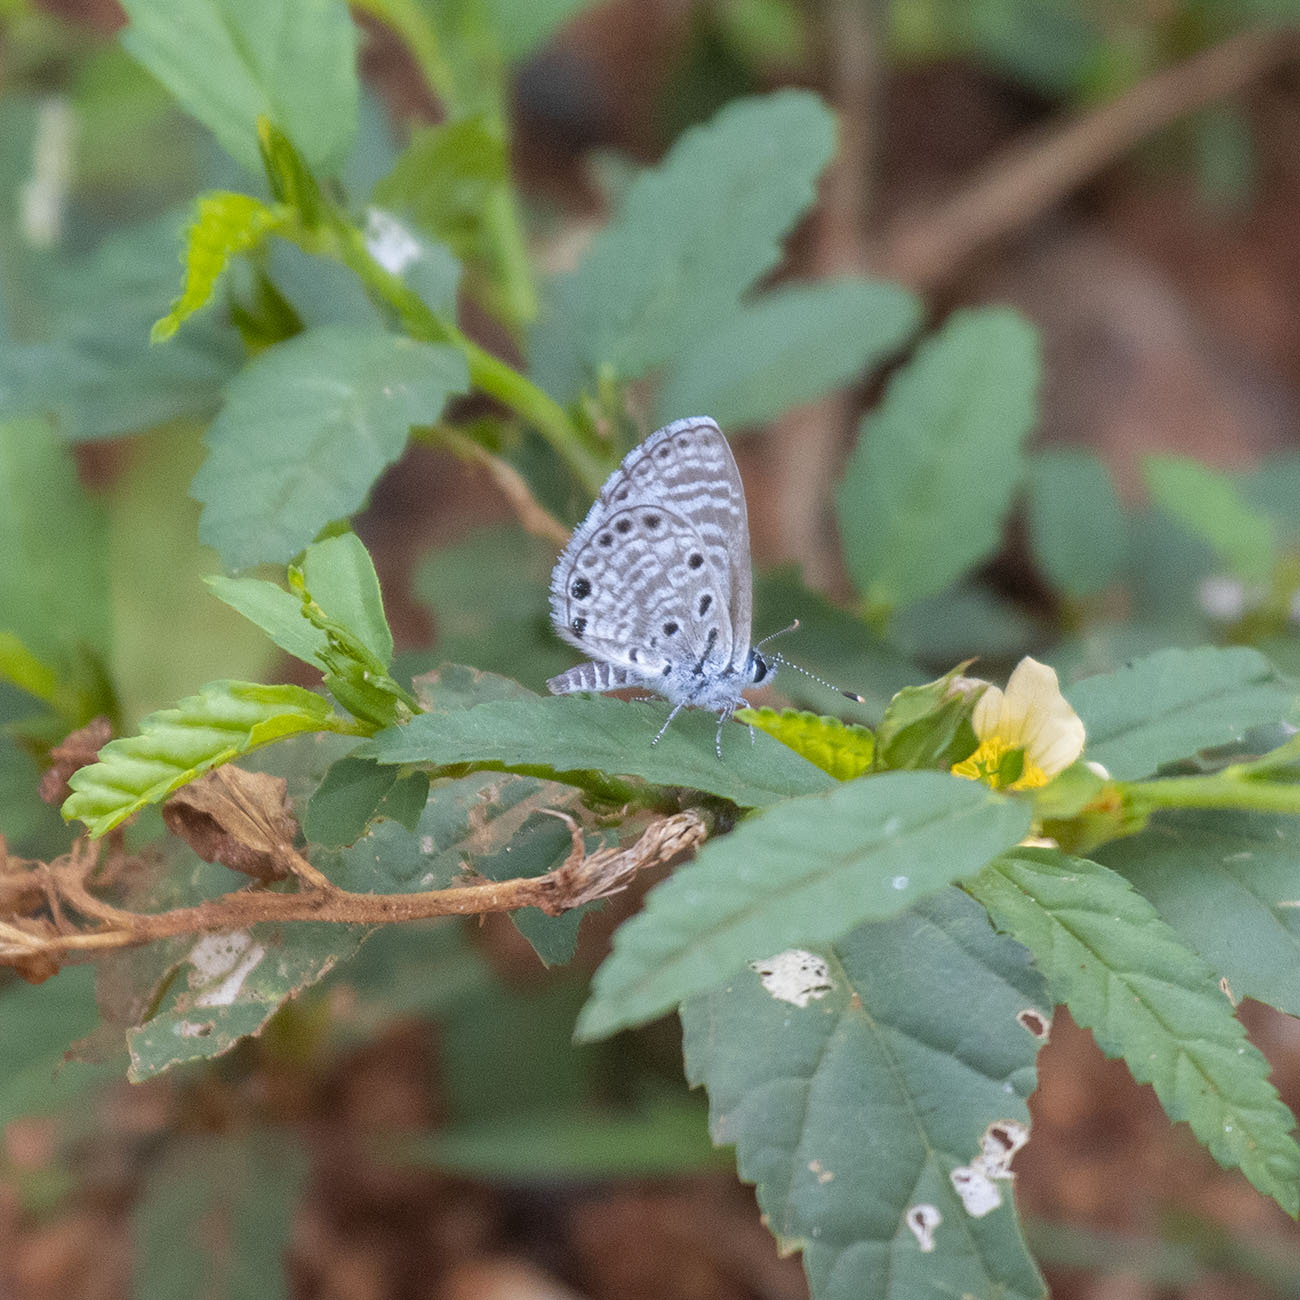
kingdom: Animalia
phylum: Arthropoda
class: Insecta
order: Lepidoptera
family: Lycaenidae
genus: Azanus
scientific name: Azanus jesous
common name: African babul blue
